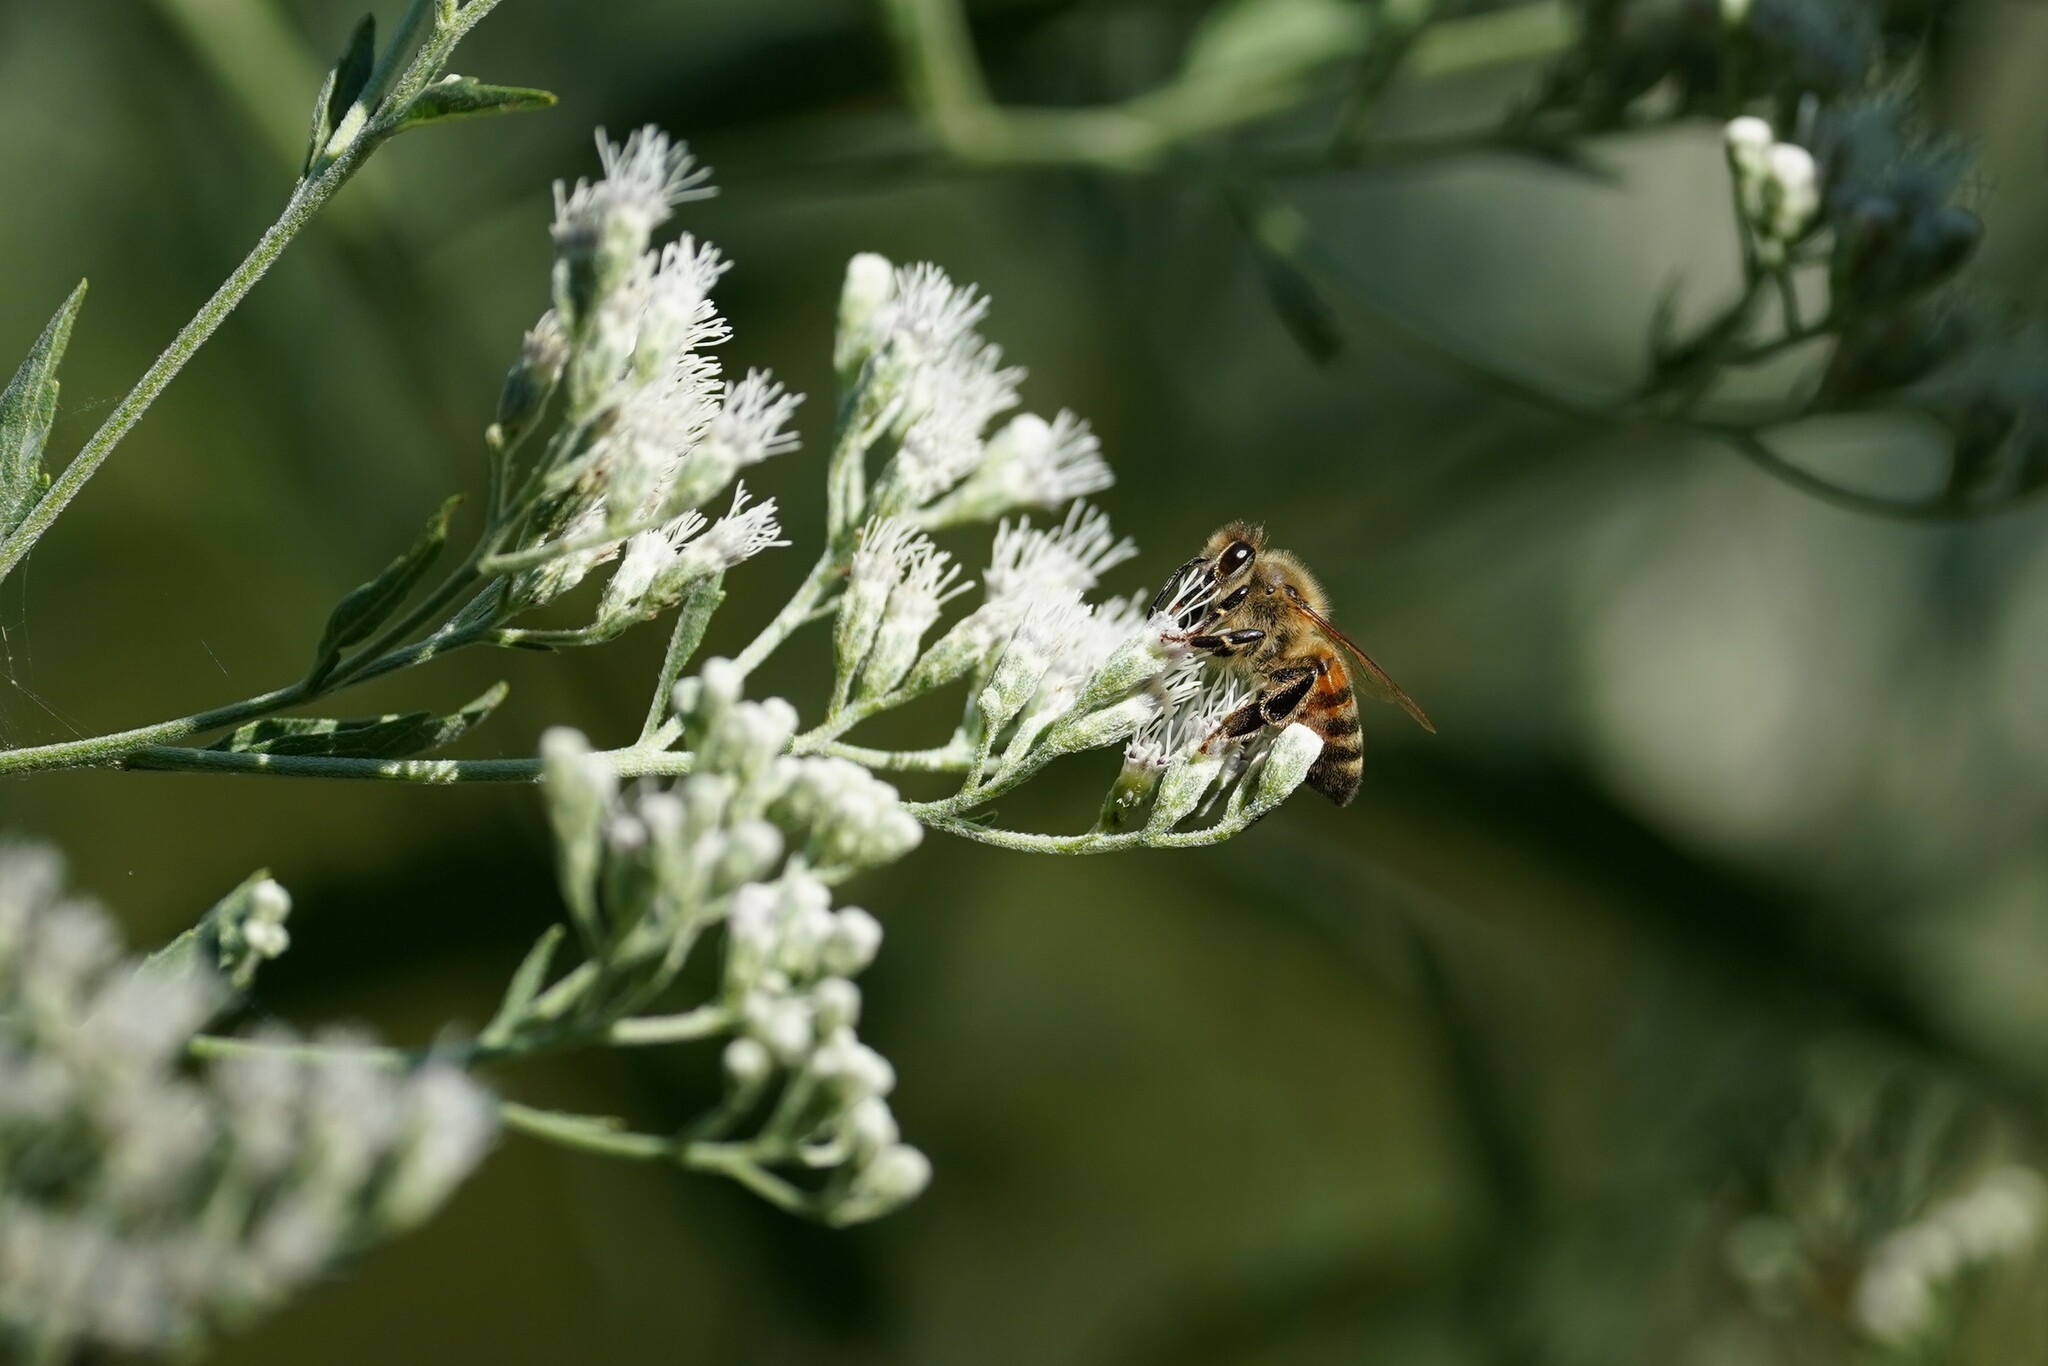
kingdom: Animalia
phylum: Arthropoda
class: Insecta
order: Hymenoptera
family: Apidae
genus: Apis
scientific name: Apis mellifera
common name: Honey bee
